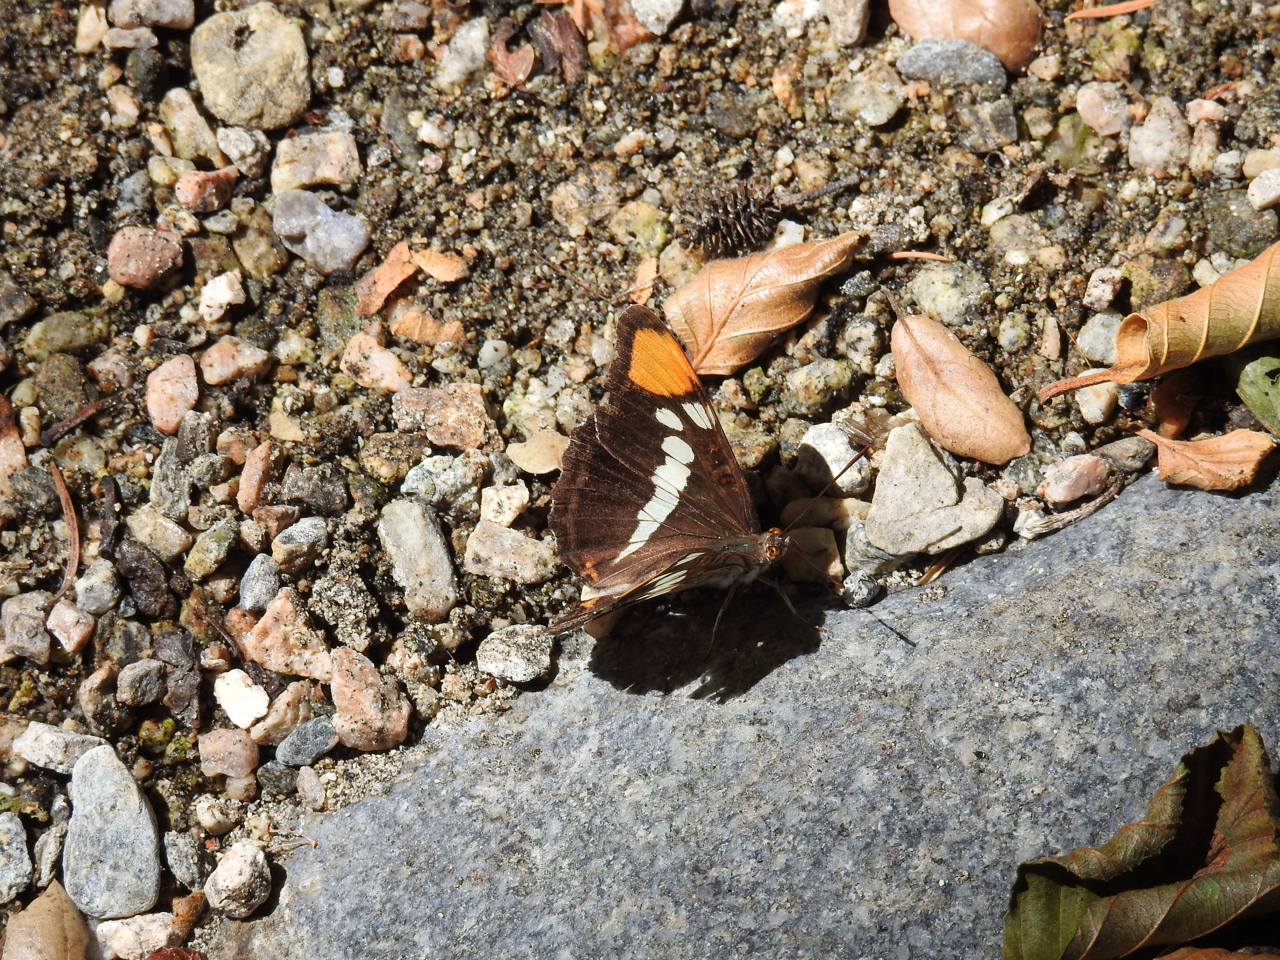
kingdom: Animalia
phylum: Arthropoda
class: Insecta
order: Lepidoptera
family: Nymphalidae
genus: Limenitis
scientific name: Limenitis bredowii
